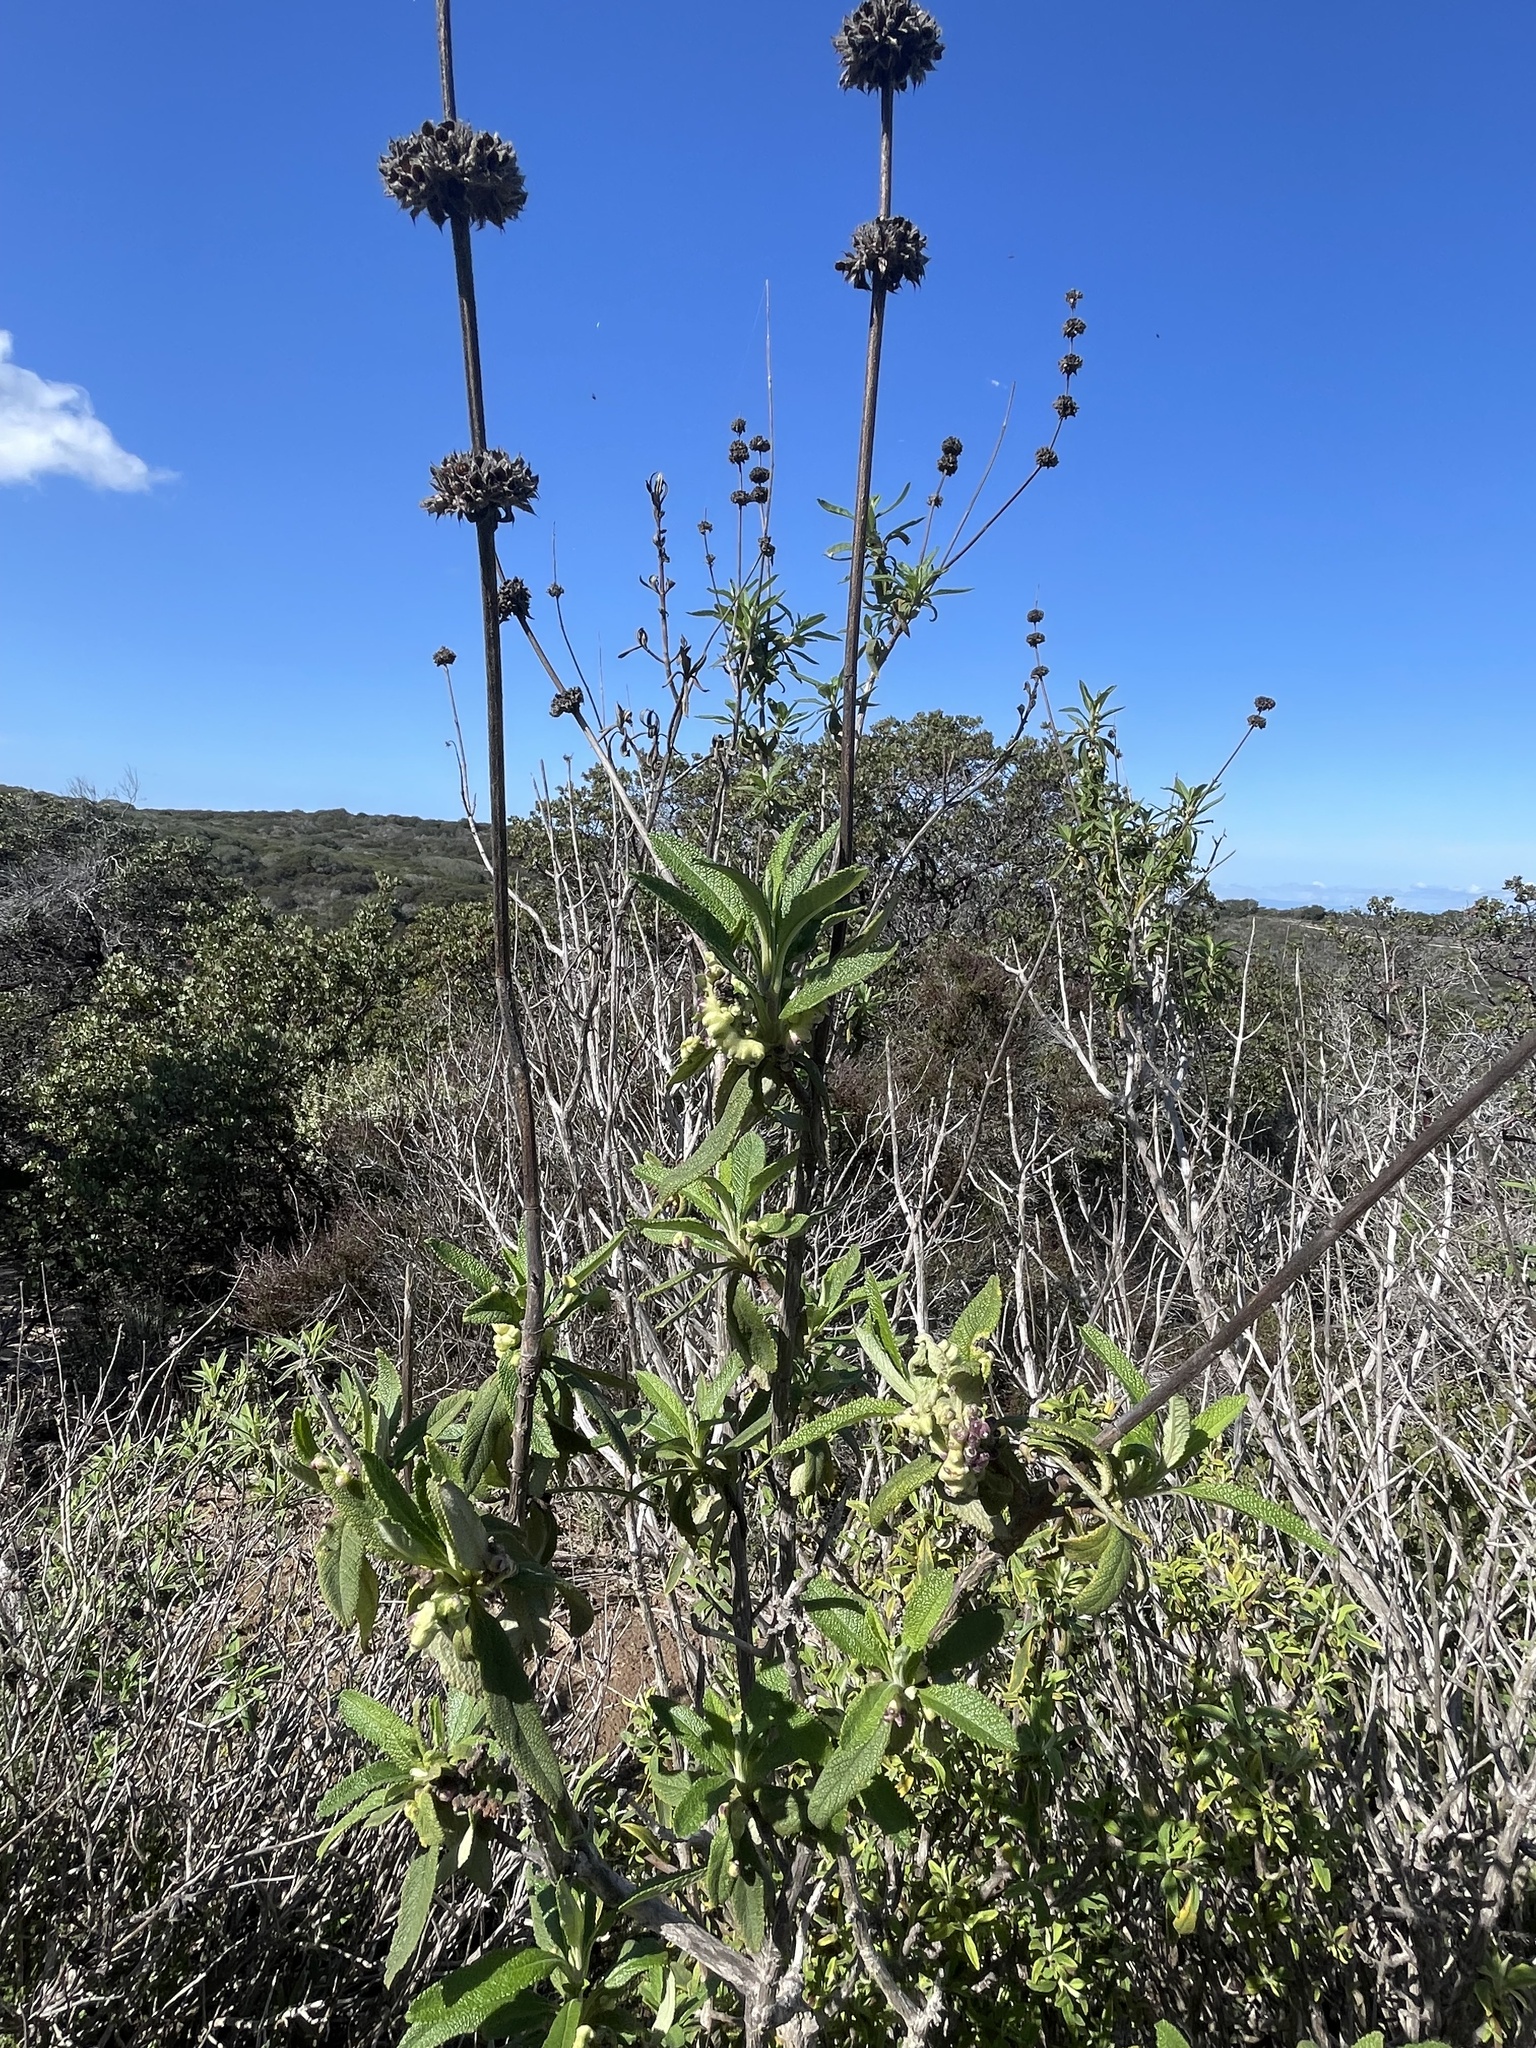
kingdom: Animalia
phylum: Arthropoda
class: Insecta
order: Diptera
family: Cecidomyiidae
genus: Rhopalomyia
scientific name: Rhopalomyia audibertiae
